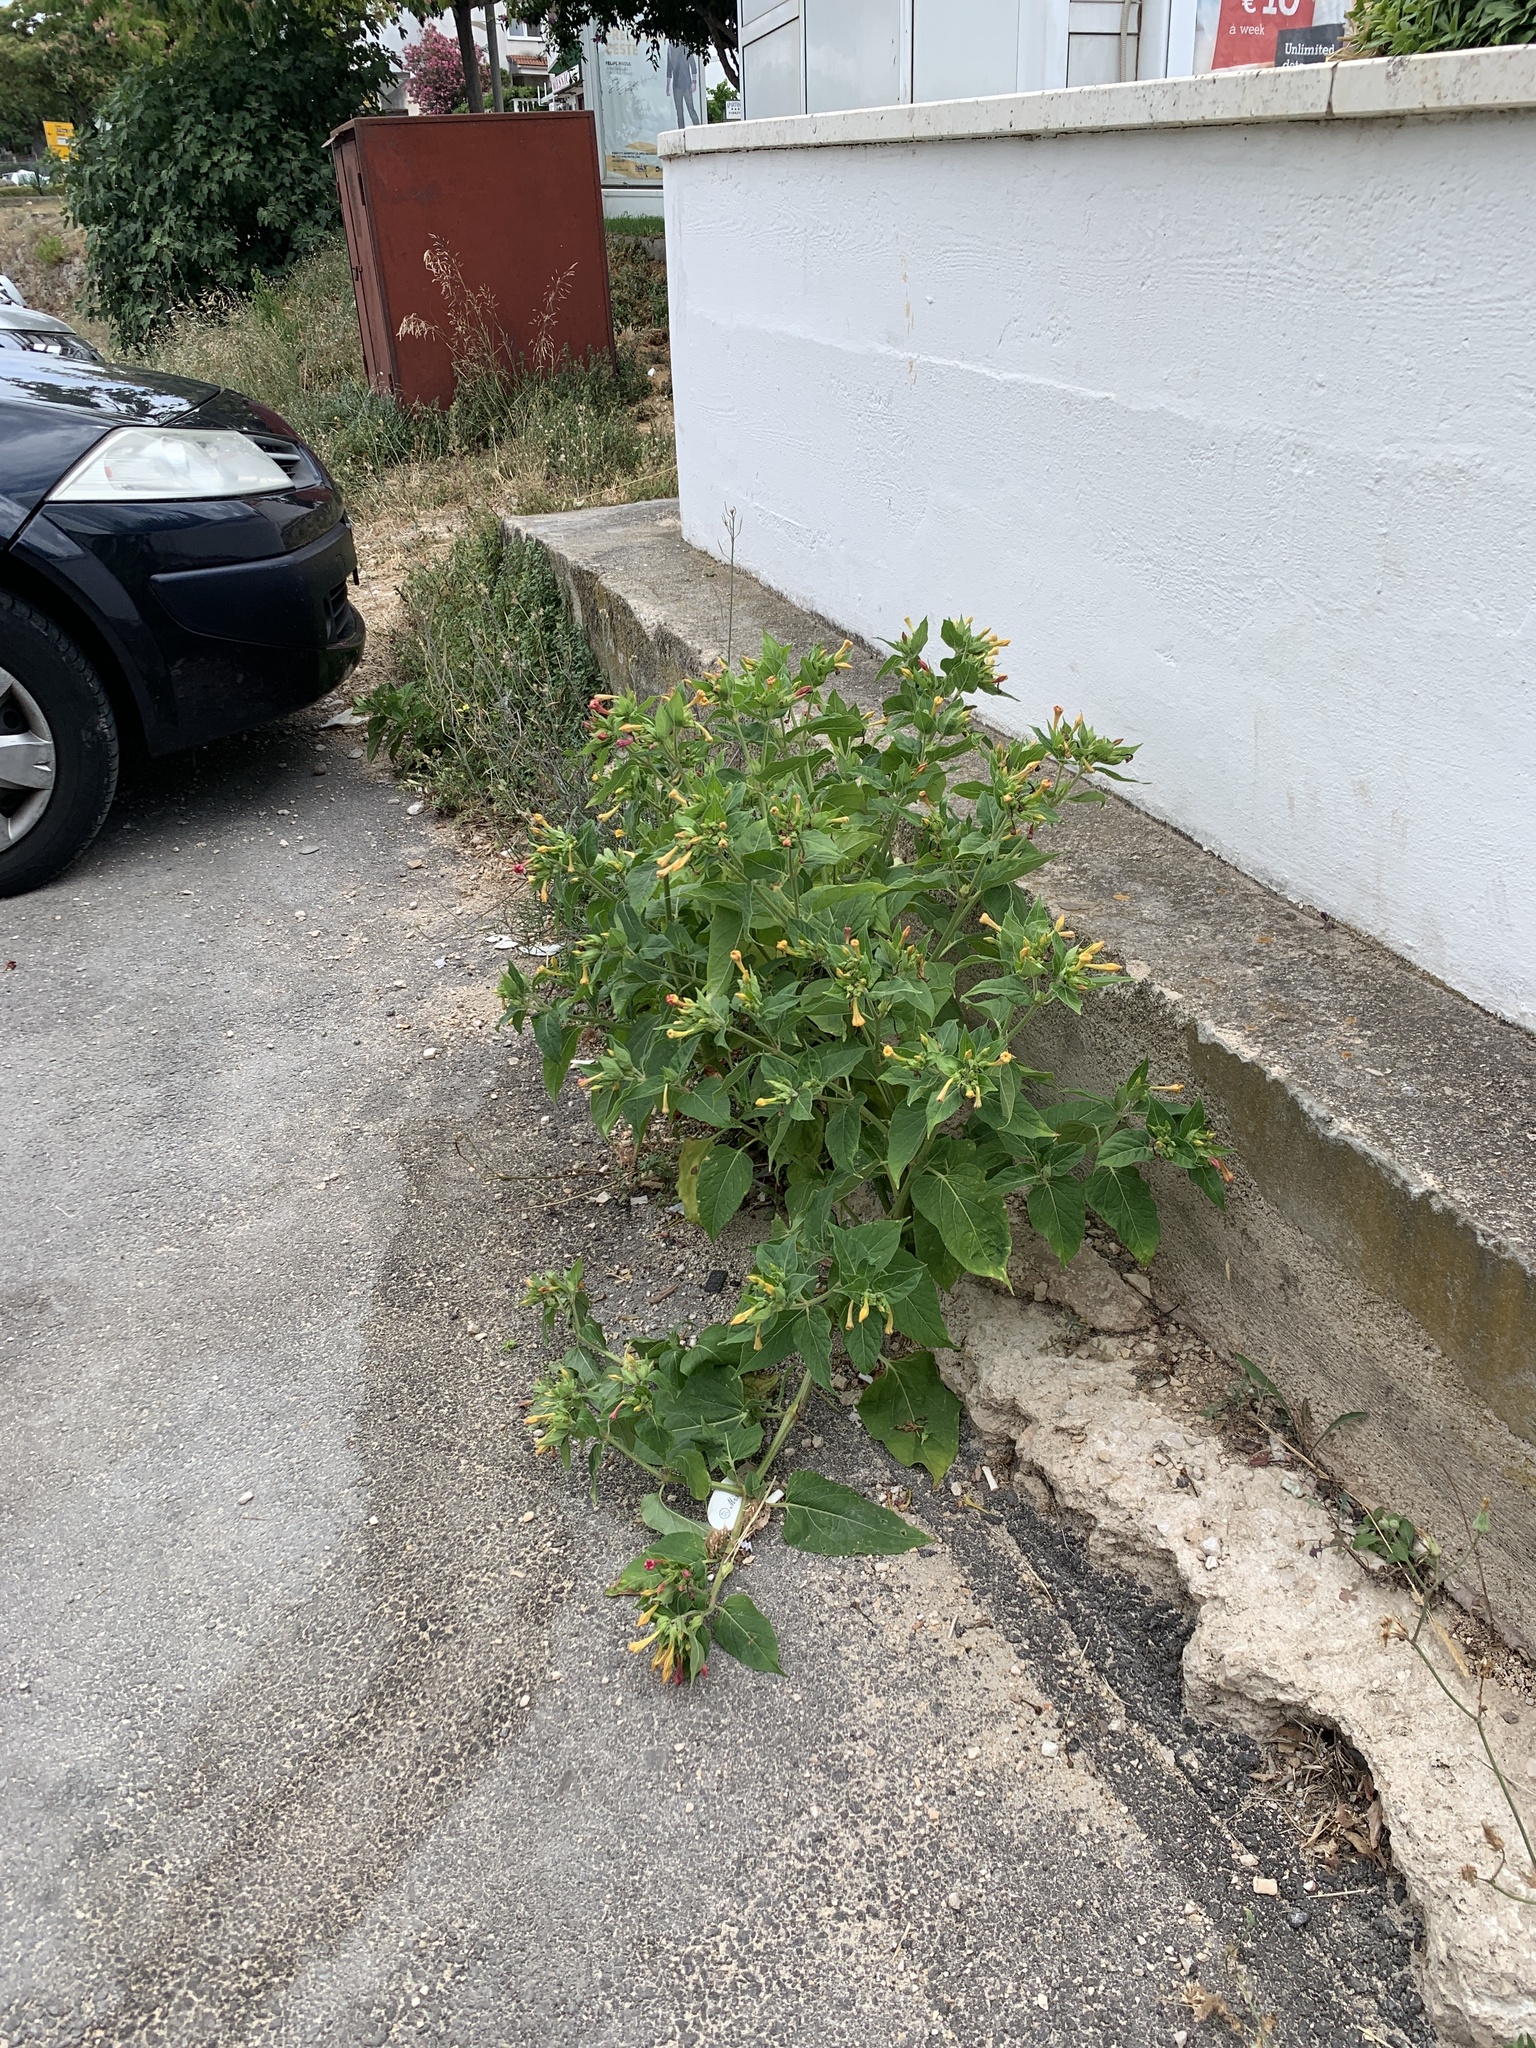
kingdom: Plantae
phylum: Tracheophyta
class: Magnoliopsida
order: Caryophyllales
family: Nyctaginaceae
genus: Mirabilis
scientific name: Mirabilis jalapa
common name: Marvel-of-peru
